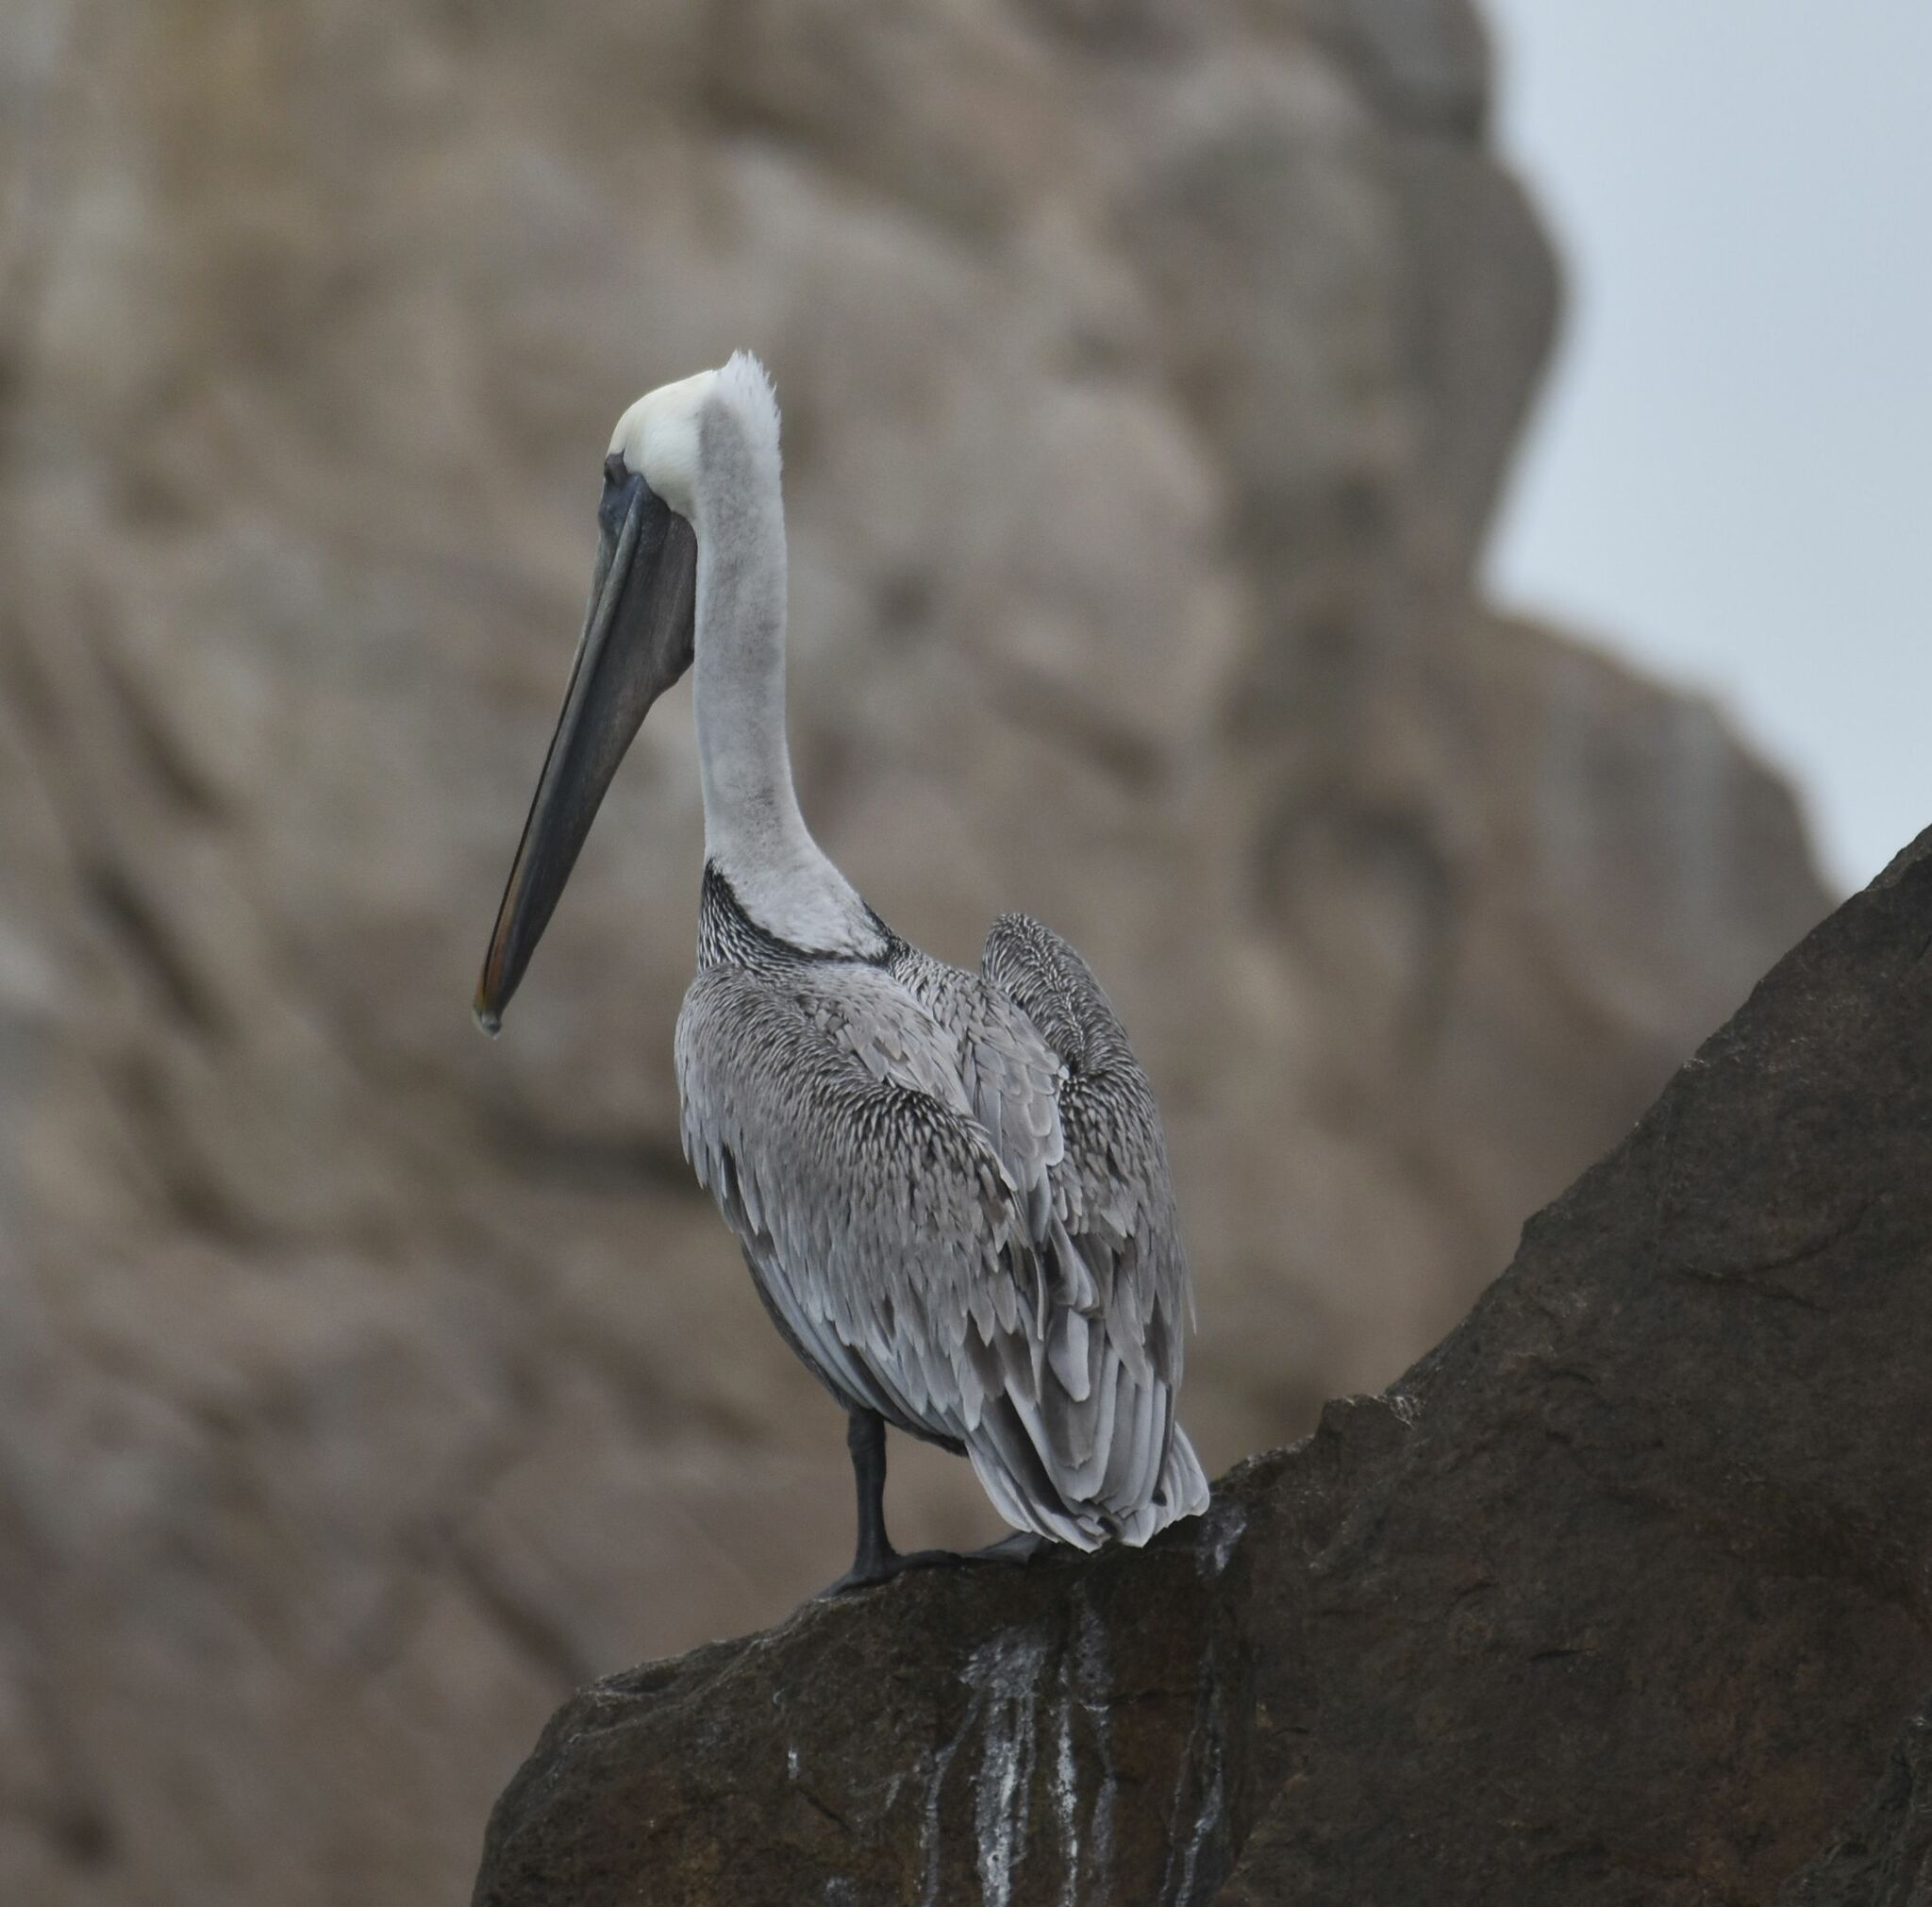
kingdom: Animalia
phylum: Chordata
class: Aves
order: Pelecaniformes
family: Pelecanidae
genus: Pelecanus
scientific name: Pelecanus occidentalis
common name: Brown pelican
